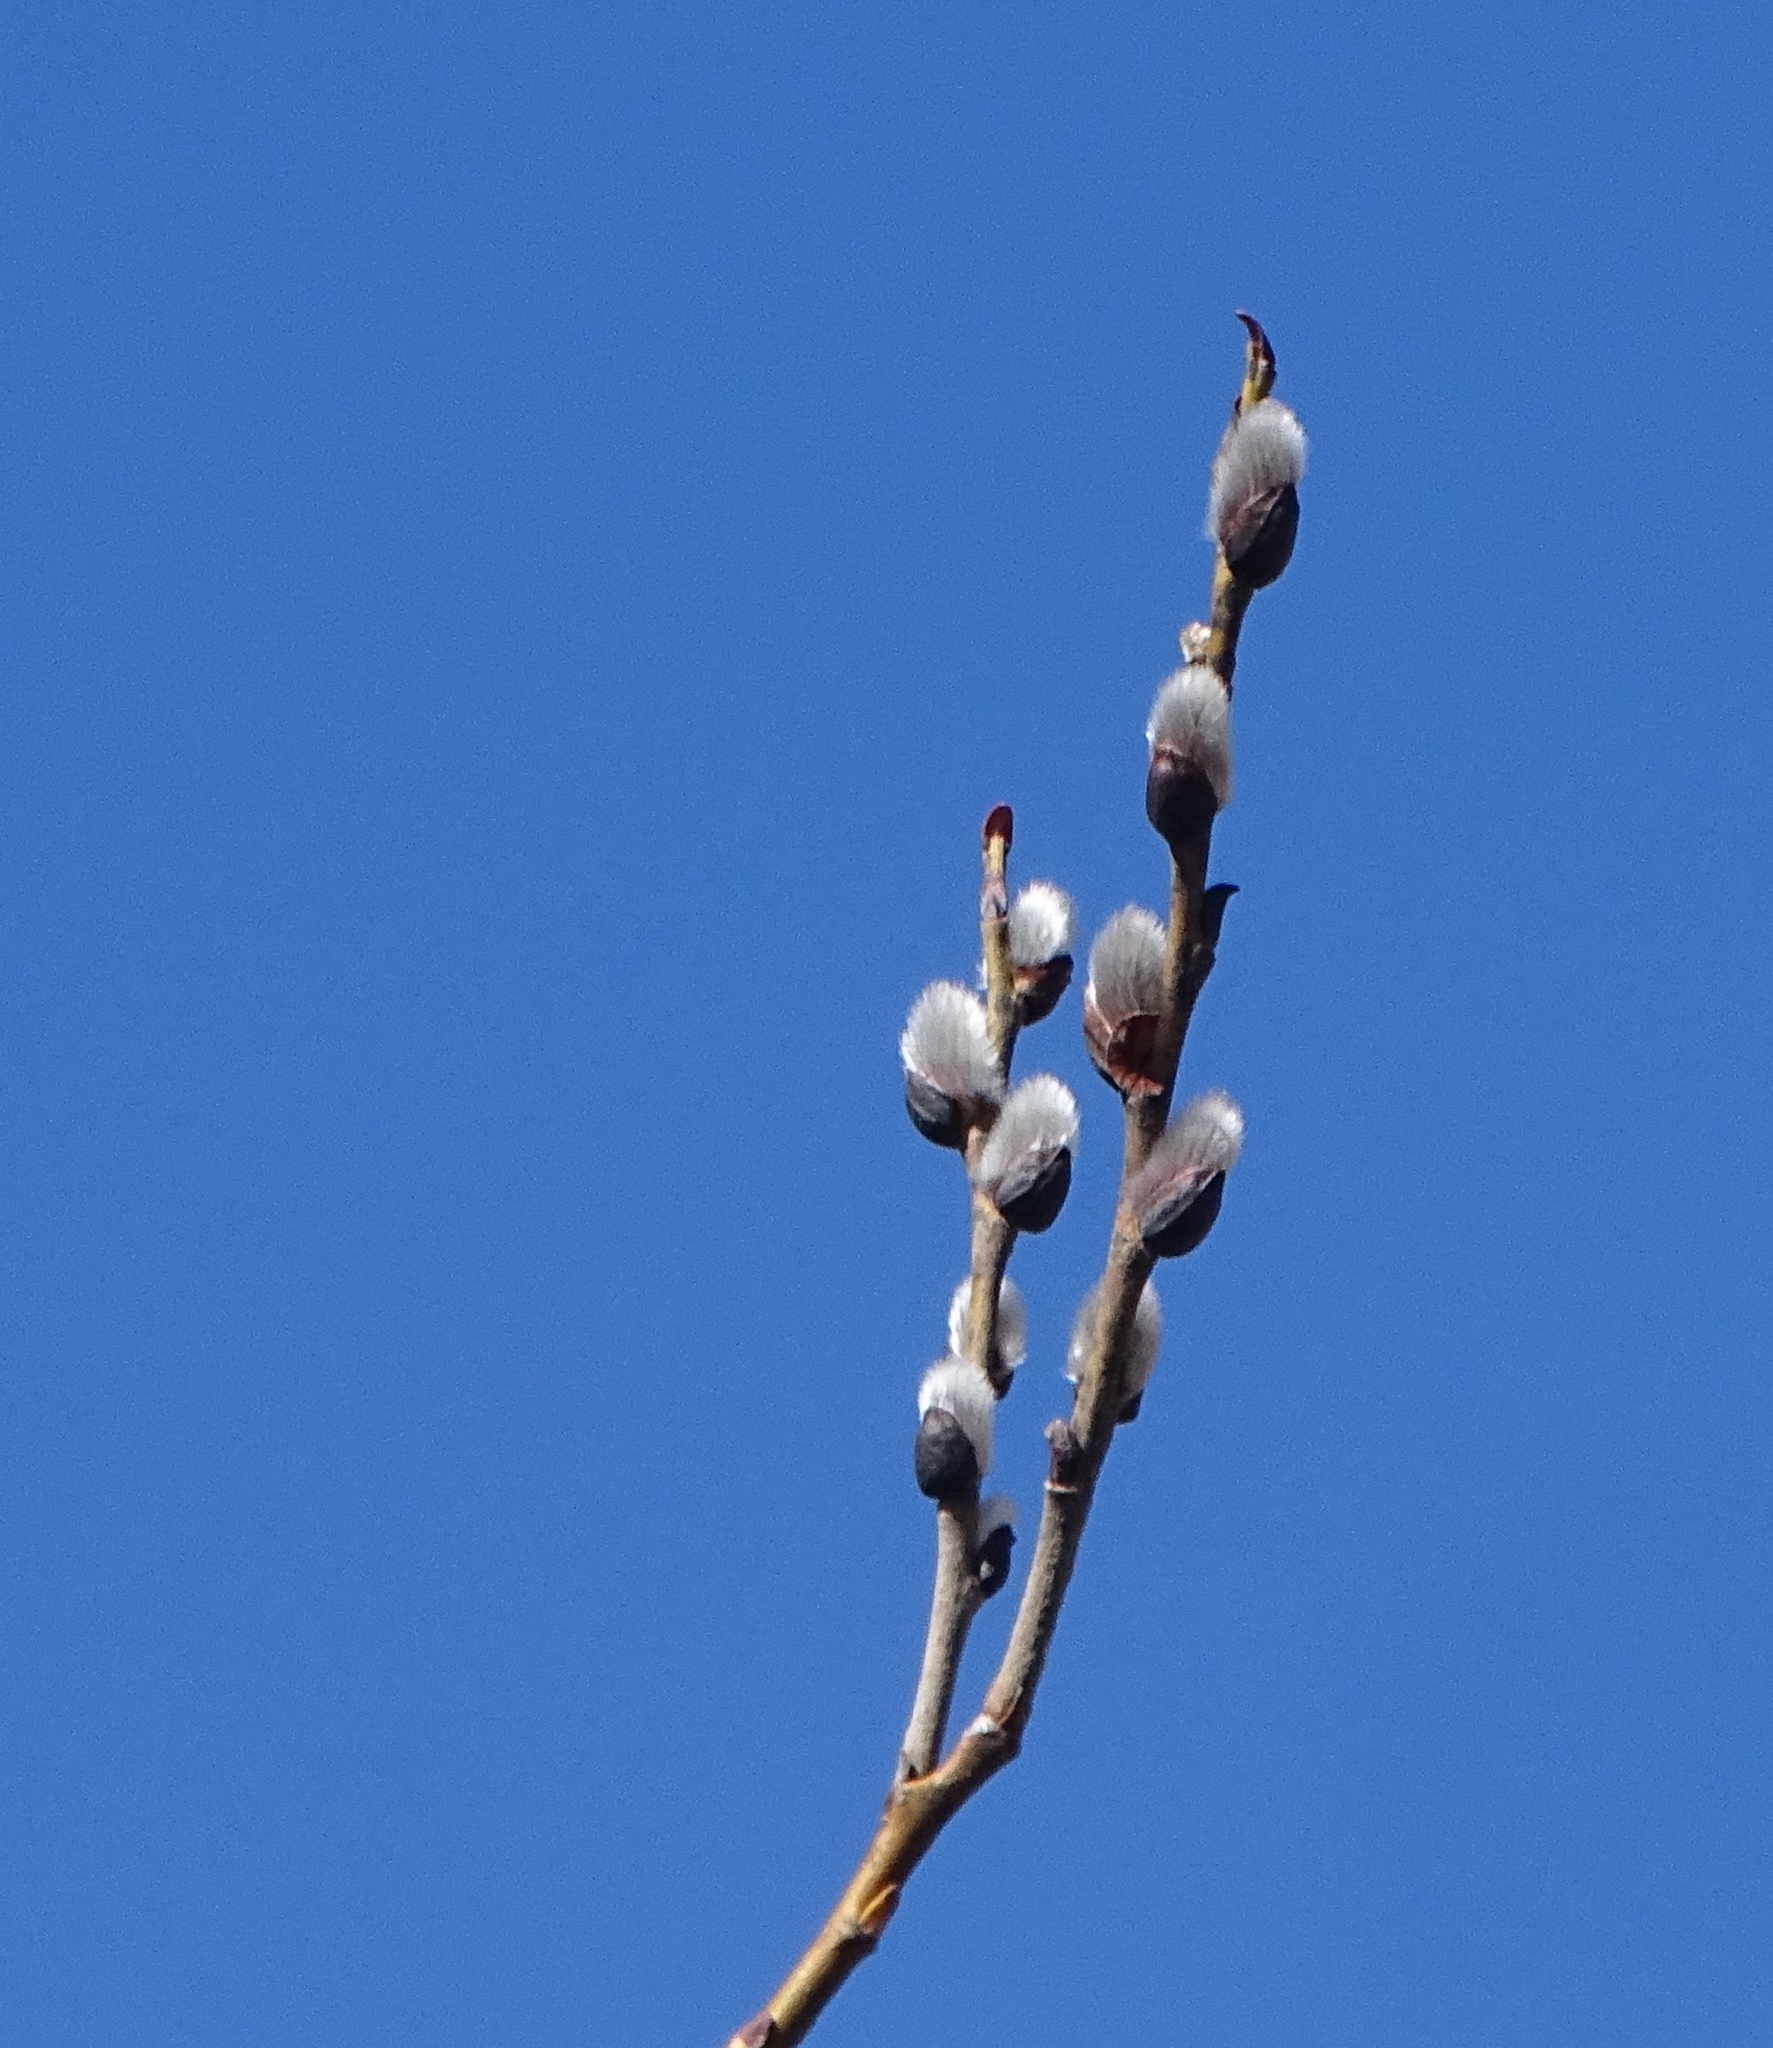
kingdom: Plantae
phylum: Tracheophyta
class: Magnoliopsida
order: Malpighiales
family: Salicaceae
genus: Salix
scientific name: Salix discolor
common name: Glaucous willow
